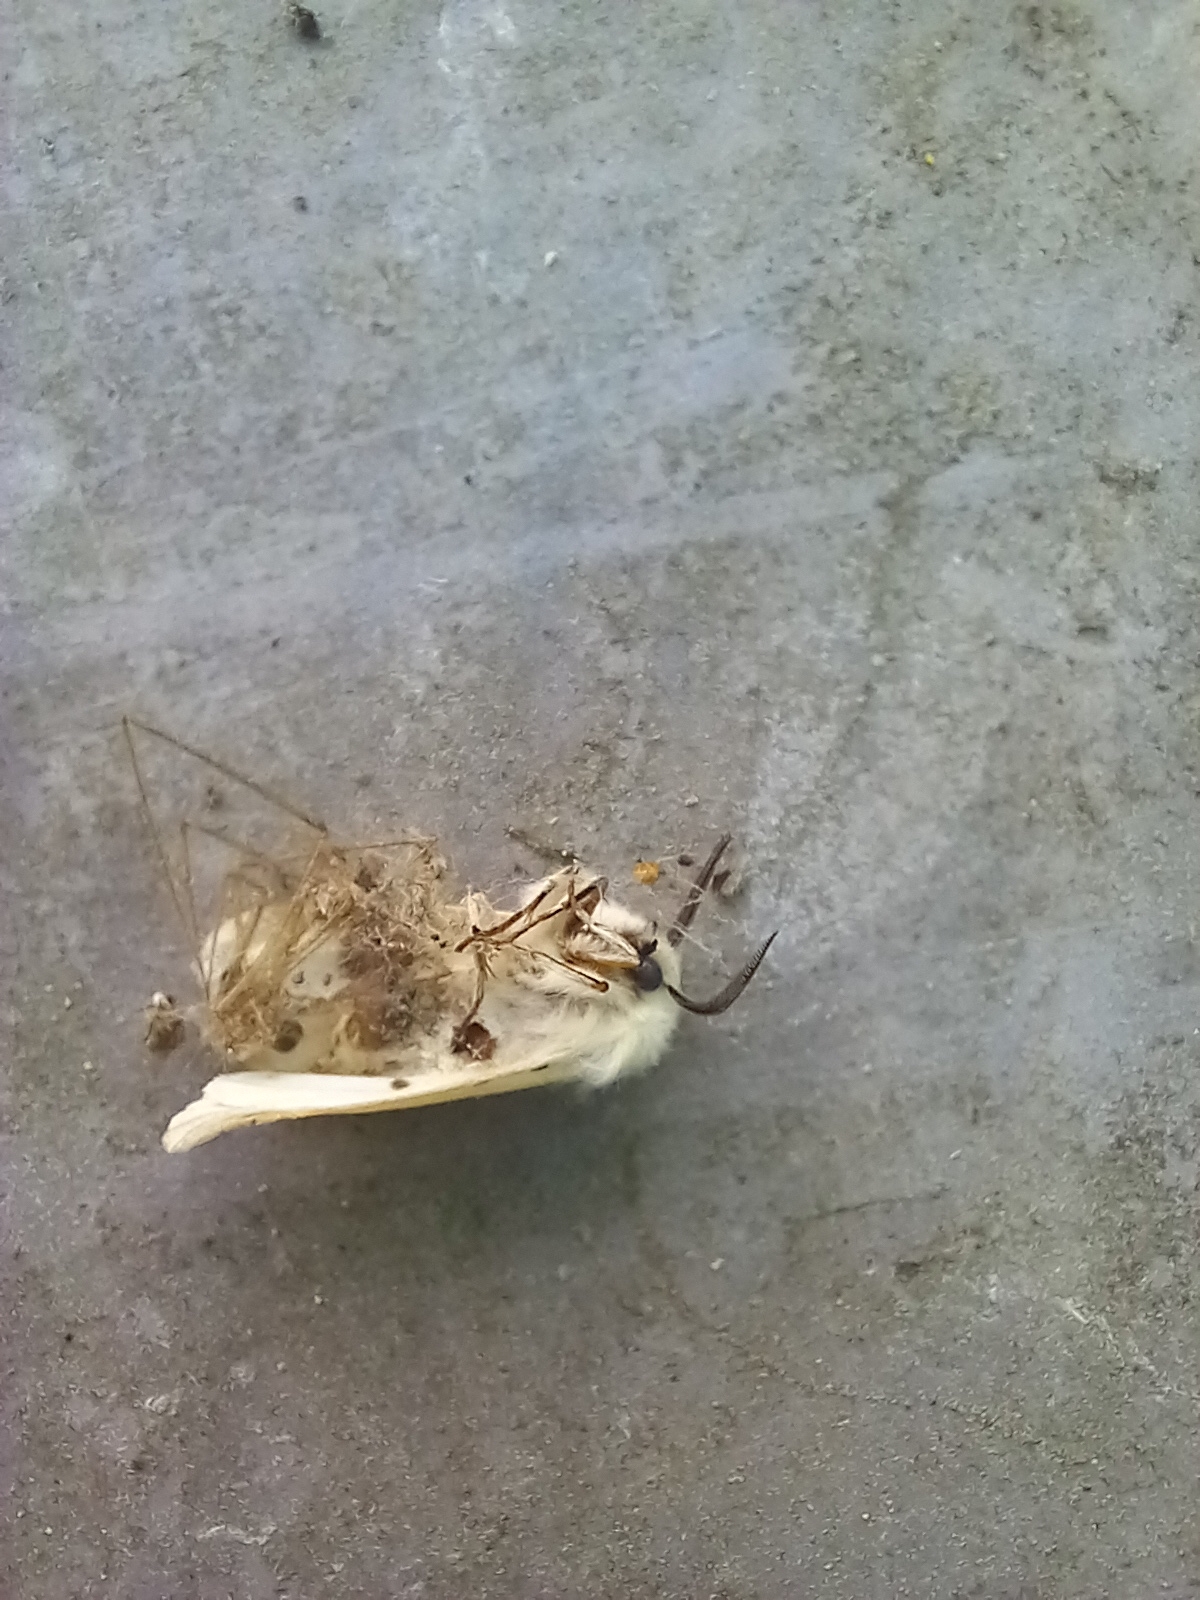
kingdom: Animalia
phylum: Arthropoda
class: Insecta
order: Lepidoptera
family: Erebidae
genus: Spilosoma
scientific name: Spilosoma lubricipeda
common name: White ermine
